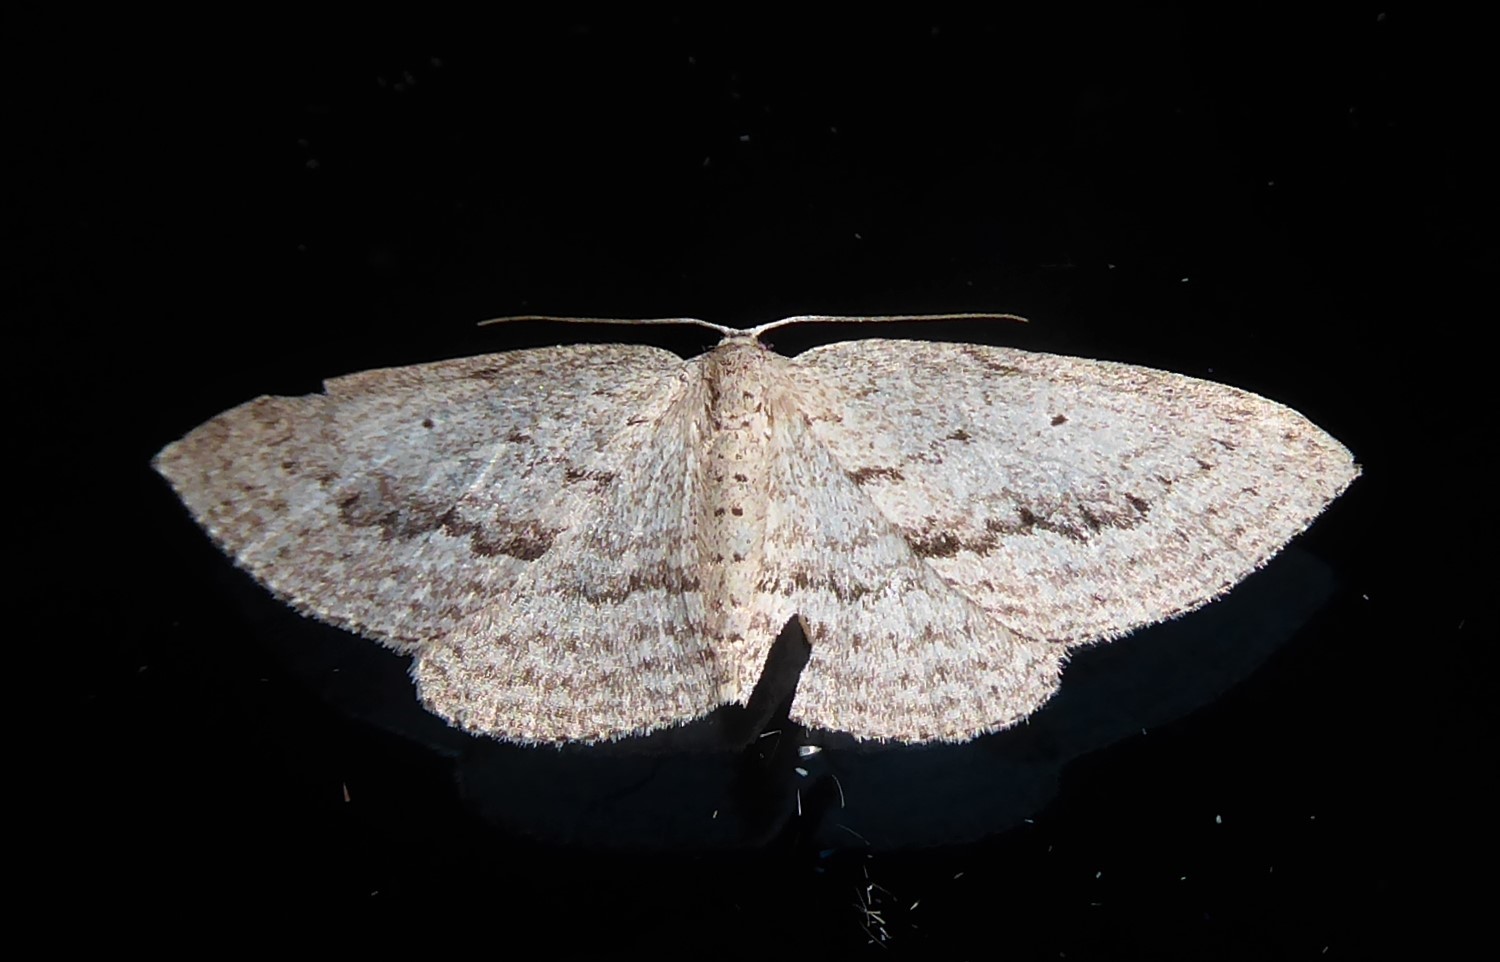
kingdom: Animalia
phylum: Arthropoda
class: Insecta
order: Lepidoptera
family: Geometridae
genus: Poecilasthena
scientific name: Poecilasthena schistaria
